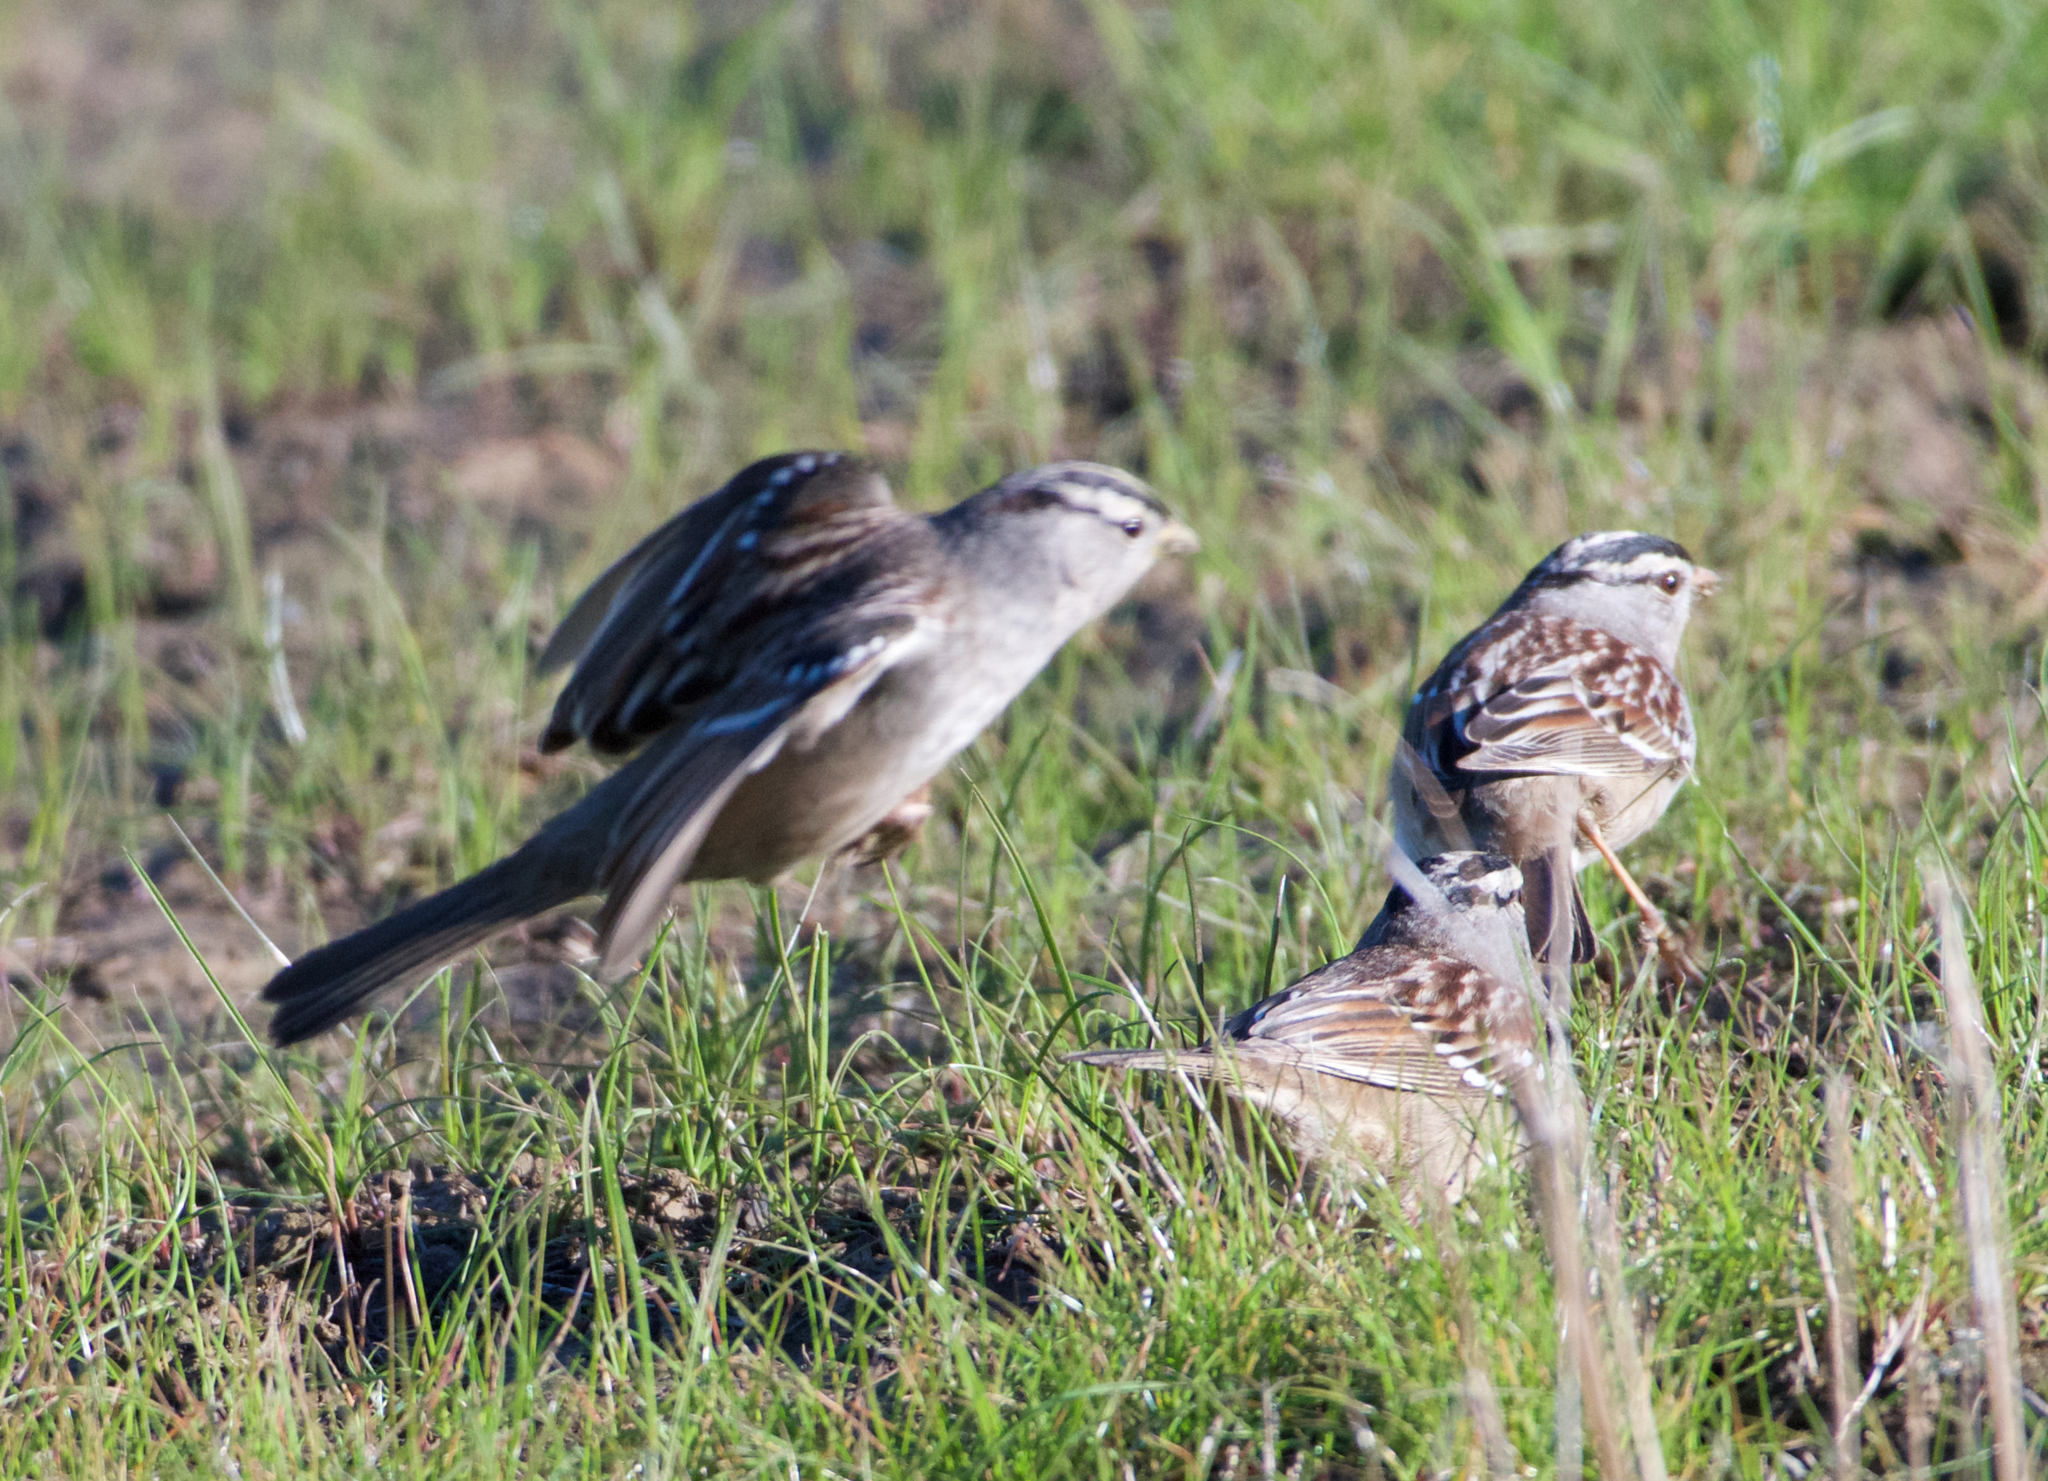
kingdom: Animalia
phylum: Chordata
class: Aves
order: Passeriformes
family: Passerellidae
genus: Zonotrichia
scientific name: Zonotrichia leucophrys
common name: White-crowned sparrow
